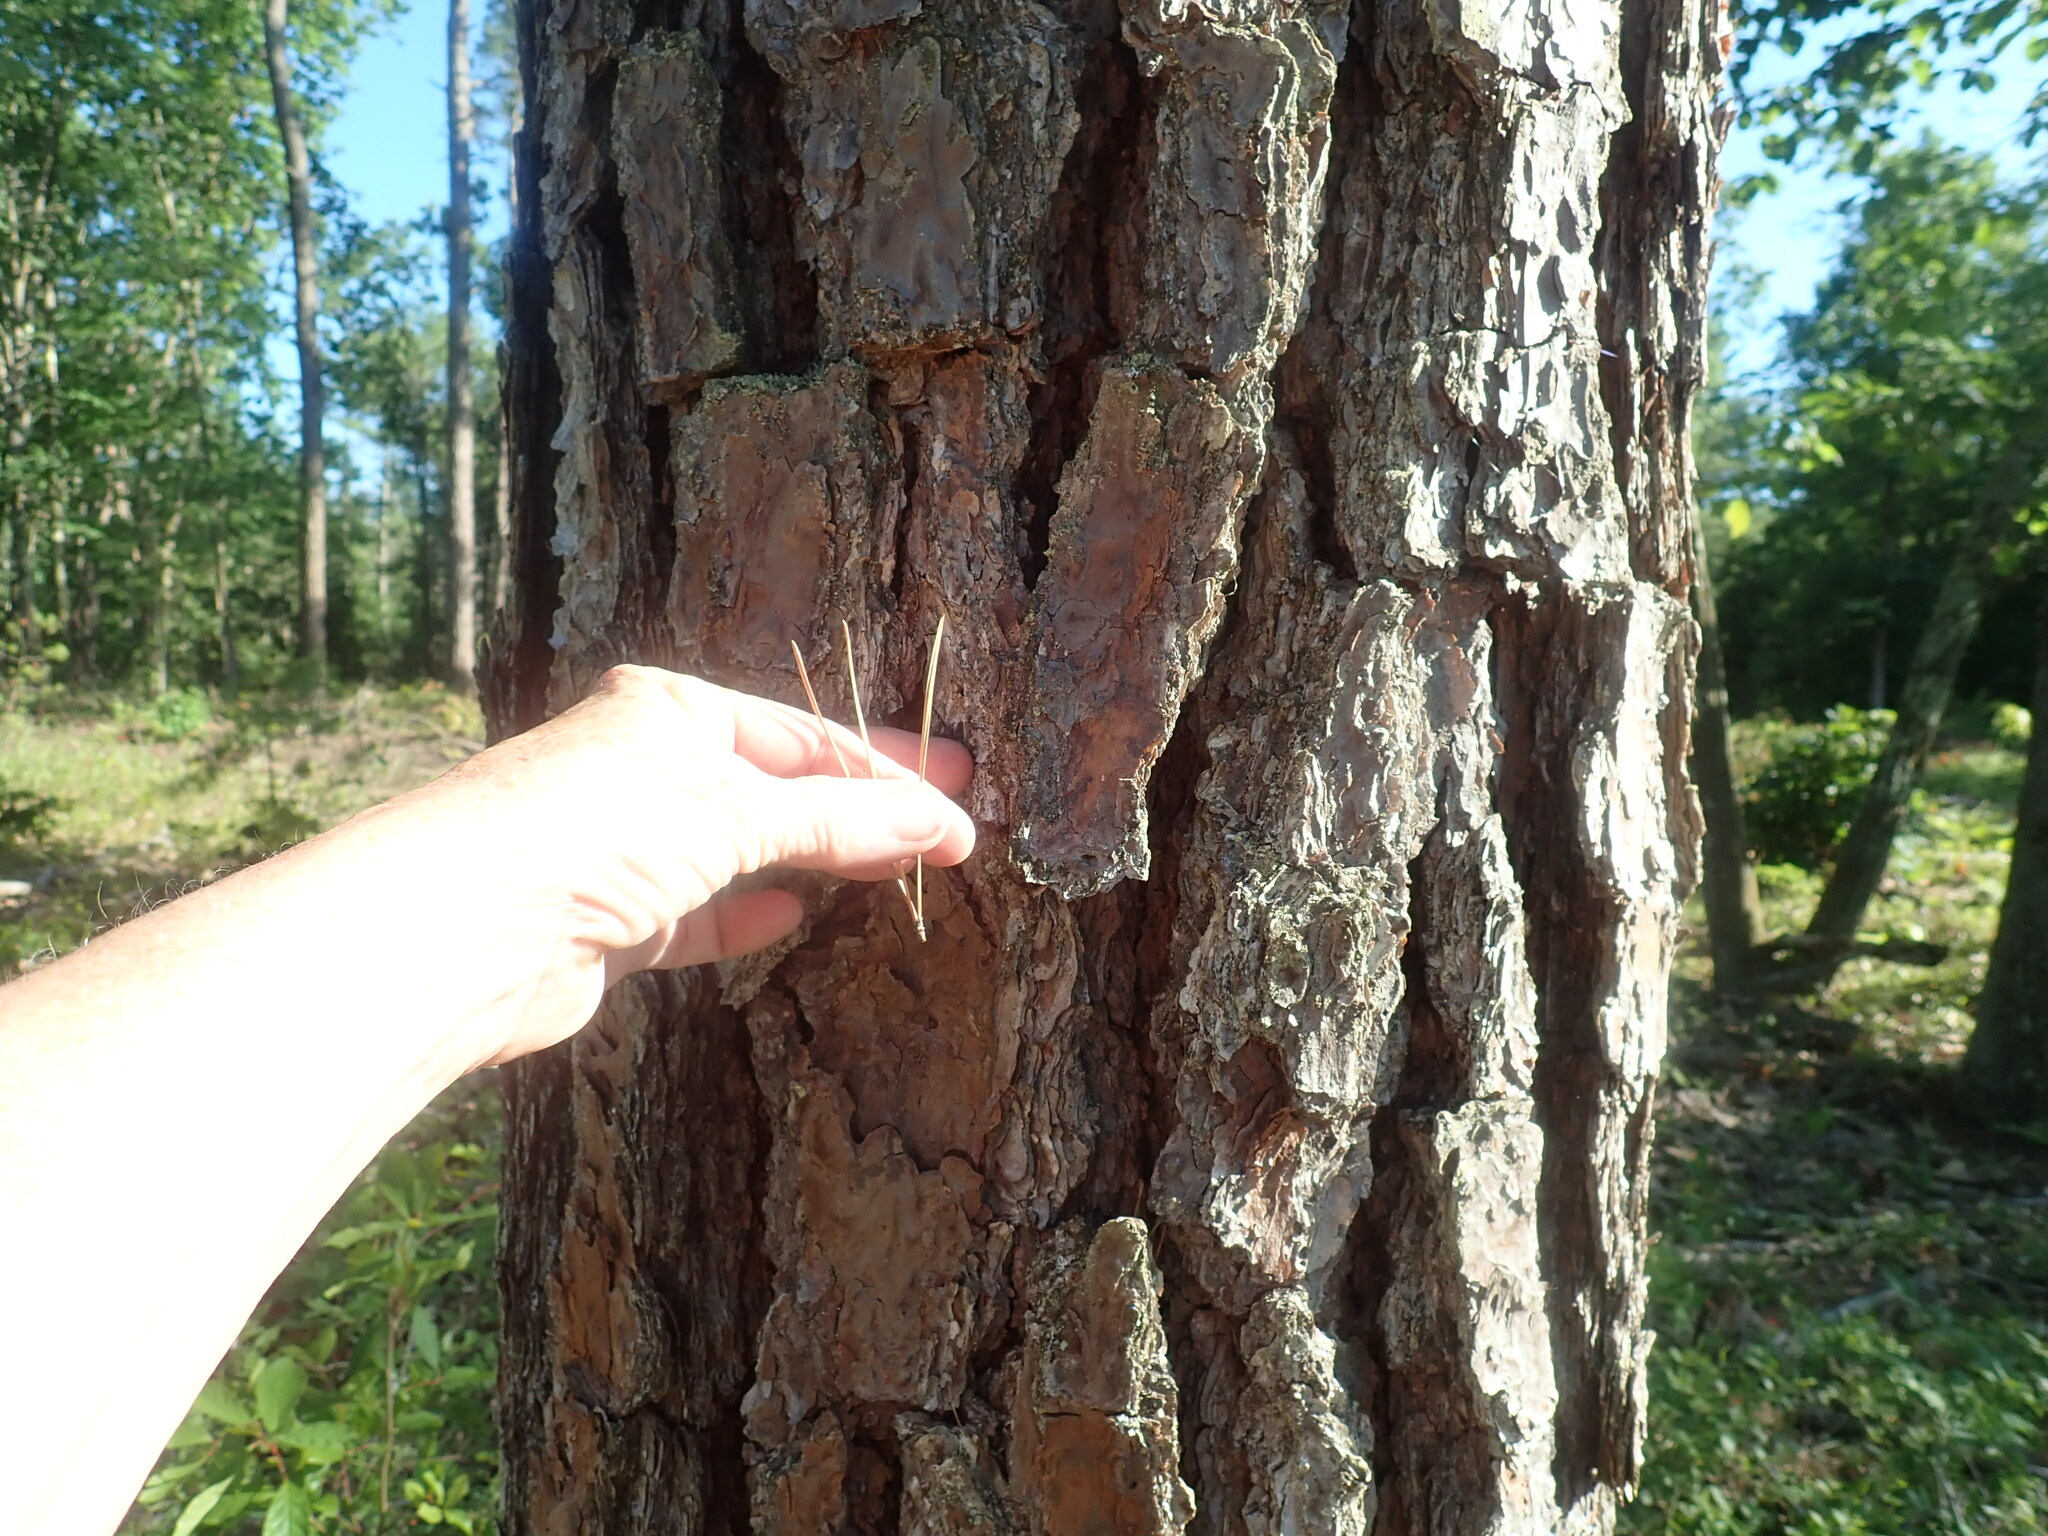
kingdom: Plantae
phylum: Tracheophyta
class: Pinopsida
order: Pinales
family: Pinaceae
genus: Pinus
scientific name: Pinus rigida
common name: Pitch pine
